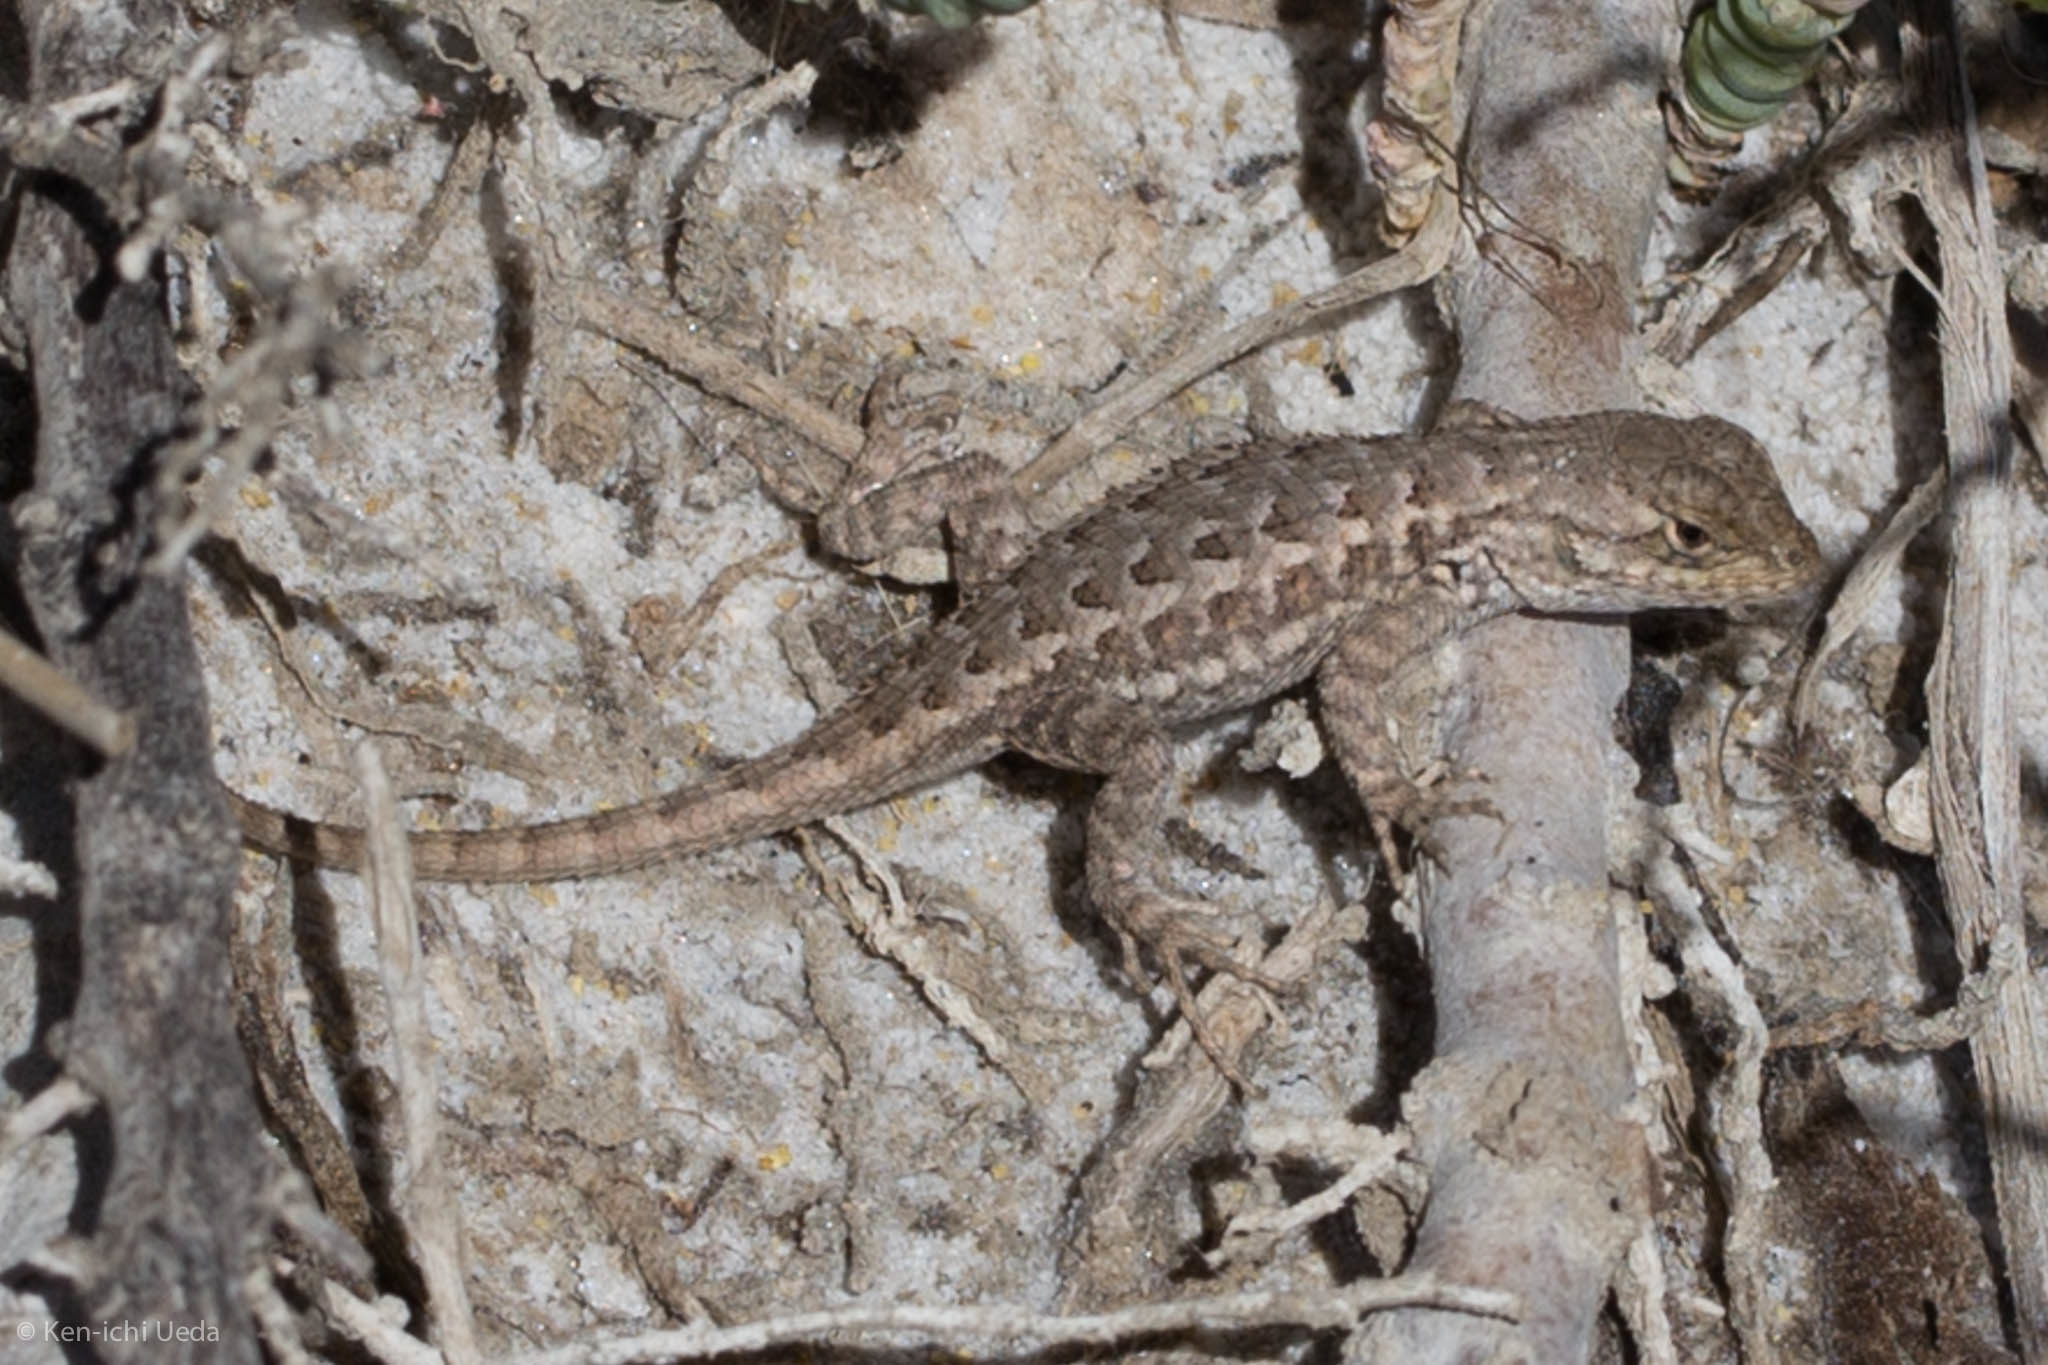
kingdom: Animalia
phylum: Chordata
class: Squamata
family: Phrynosomatidae
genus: Sceloporus
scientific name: Sceloporus occidentalis
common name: Western fence lizard
